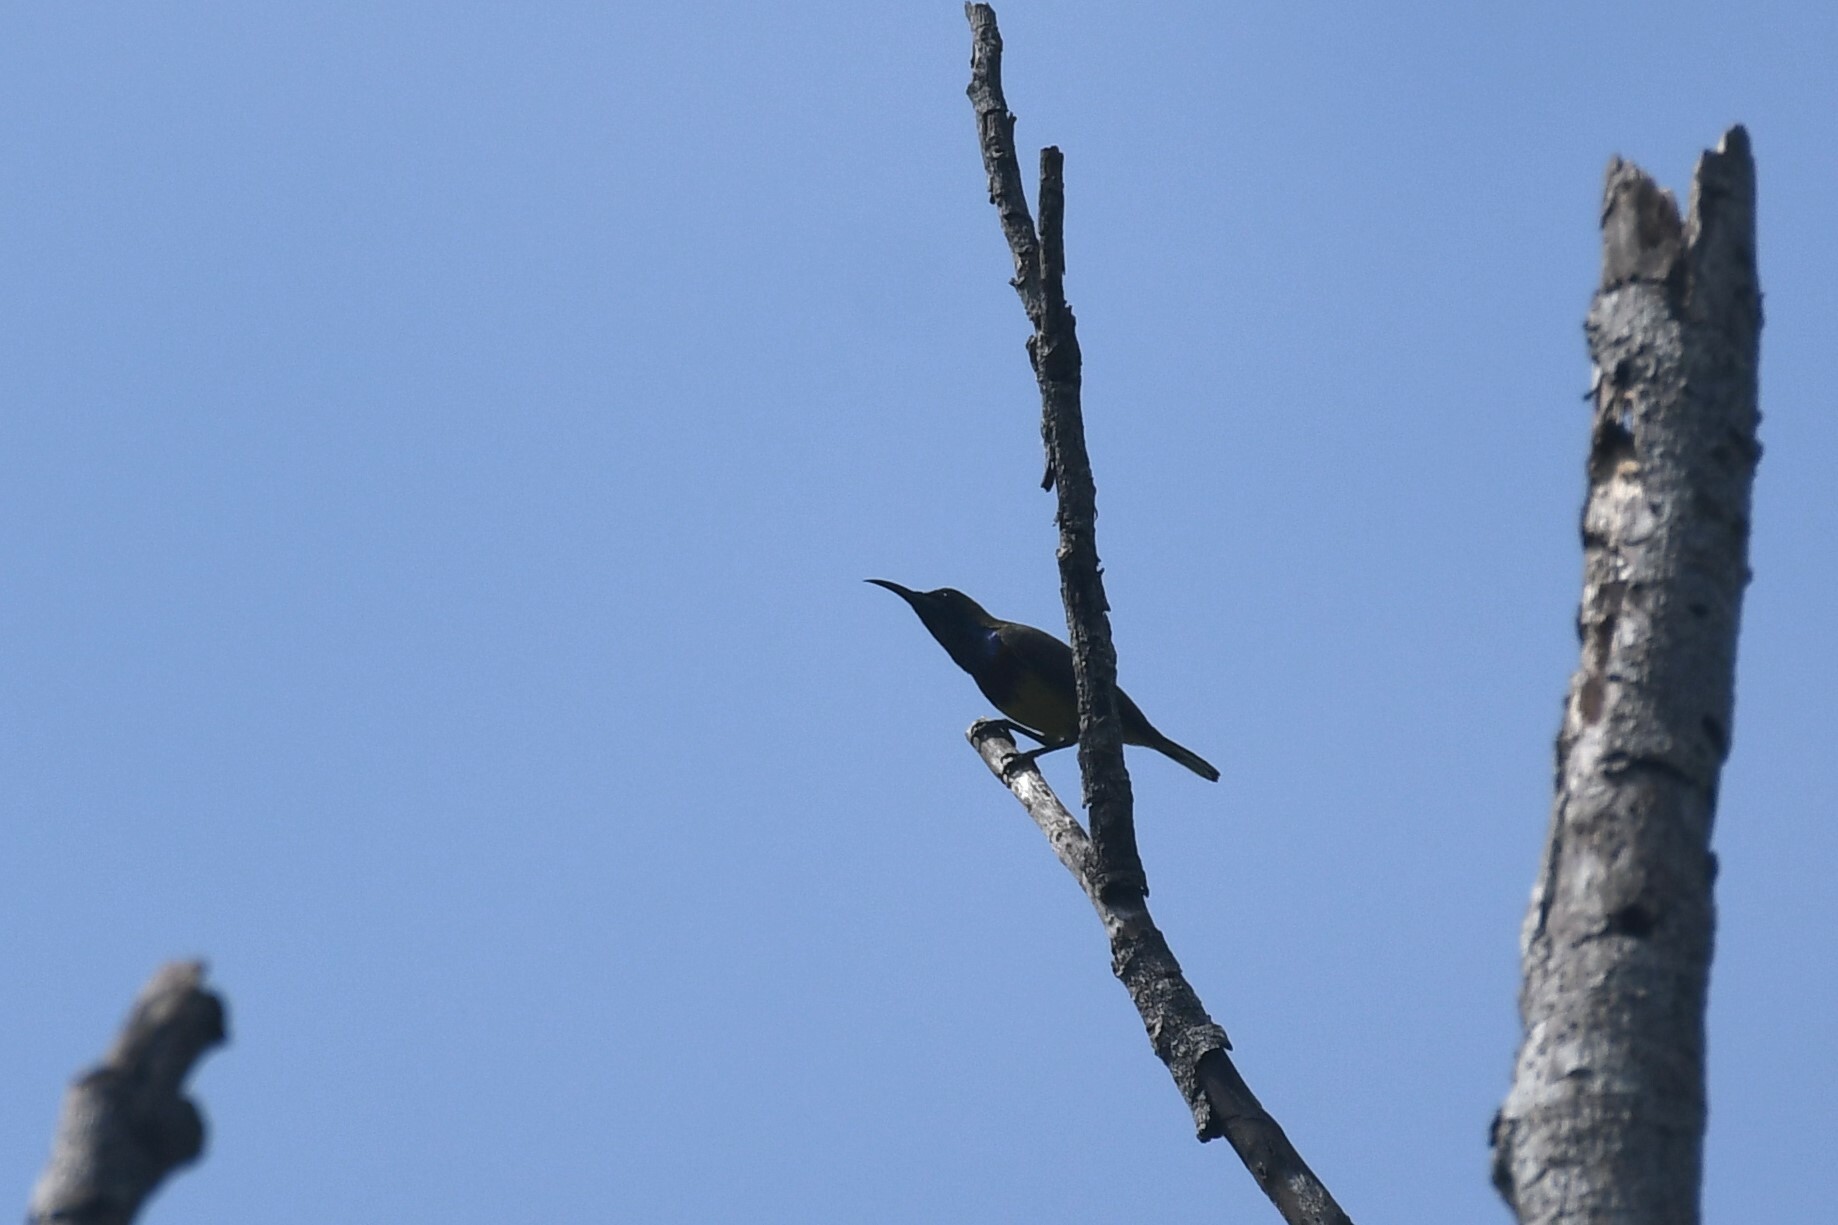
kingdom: Animalia
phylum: Chordata
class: Aves
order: Passeriformes
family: Nectariniidae
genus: Cinnyris
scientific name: Cinnyris
